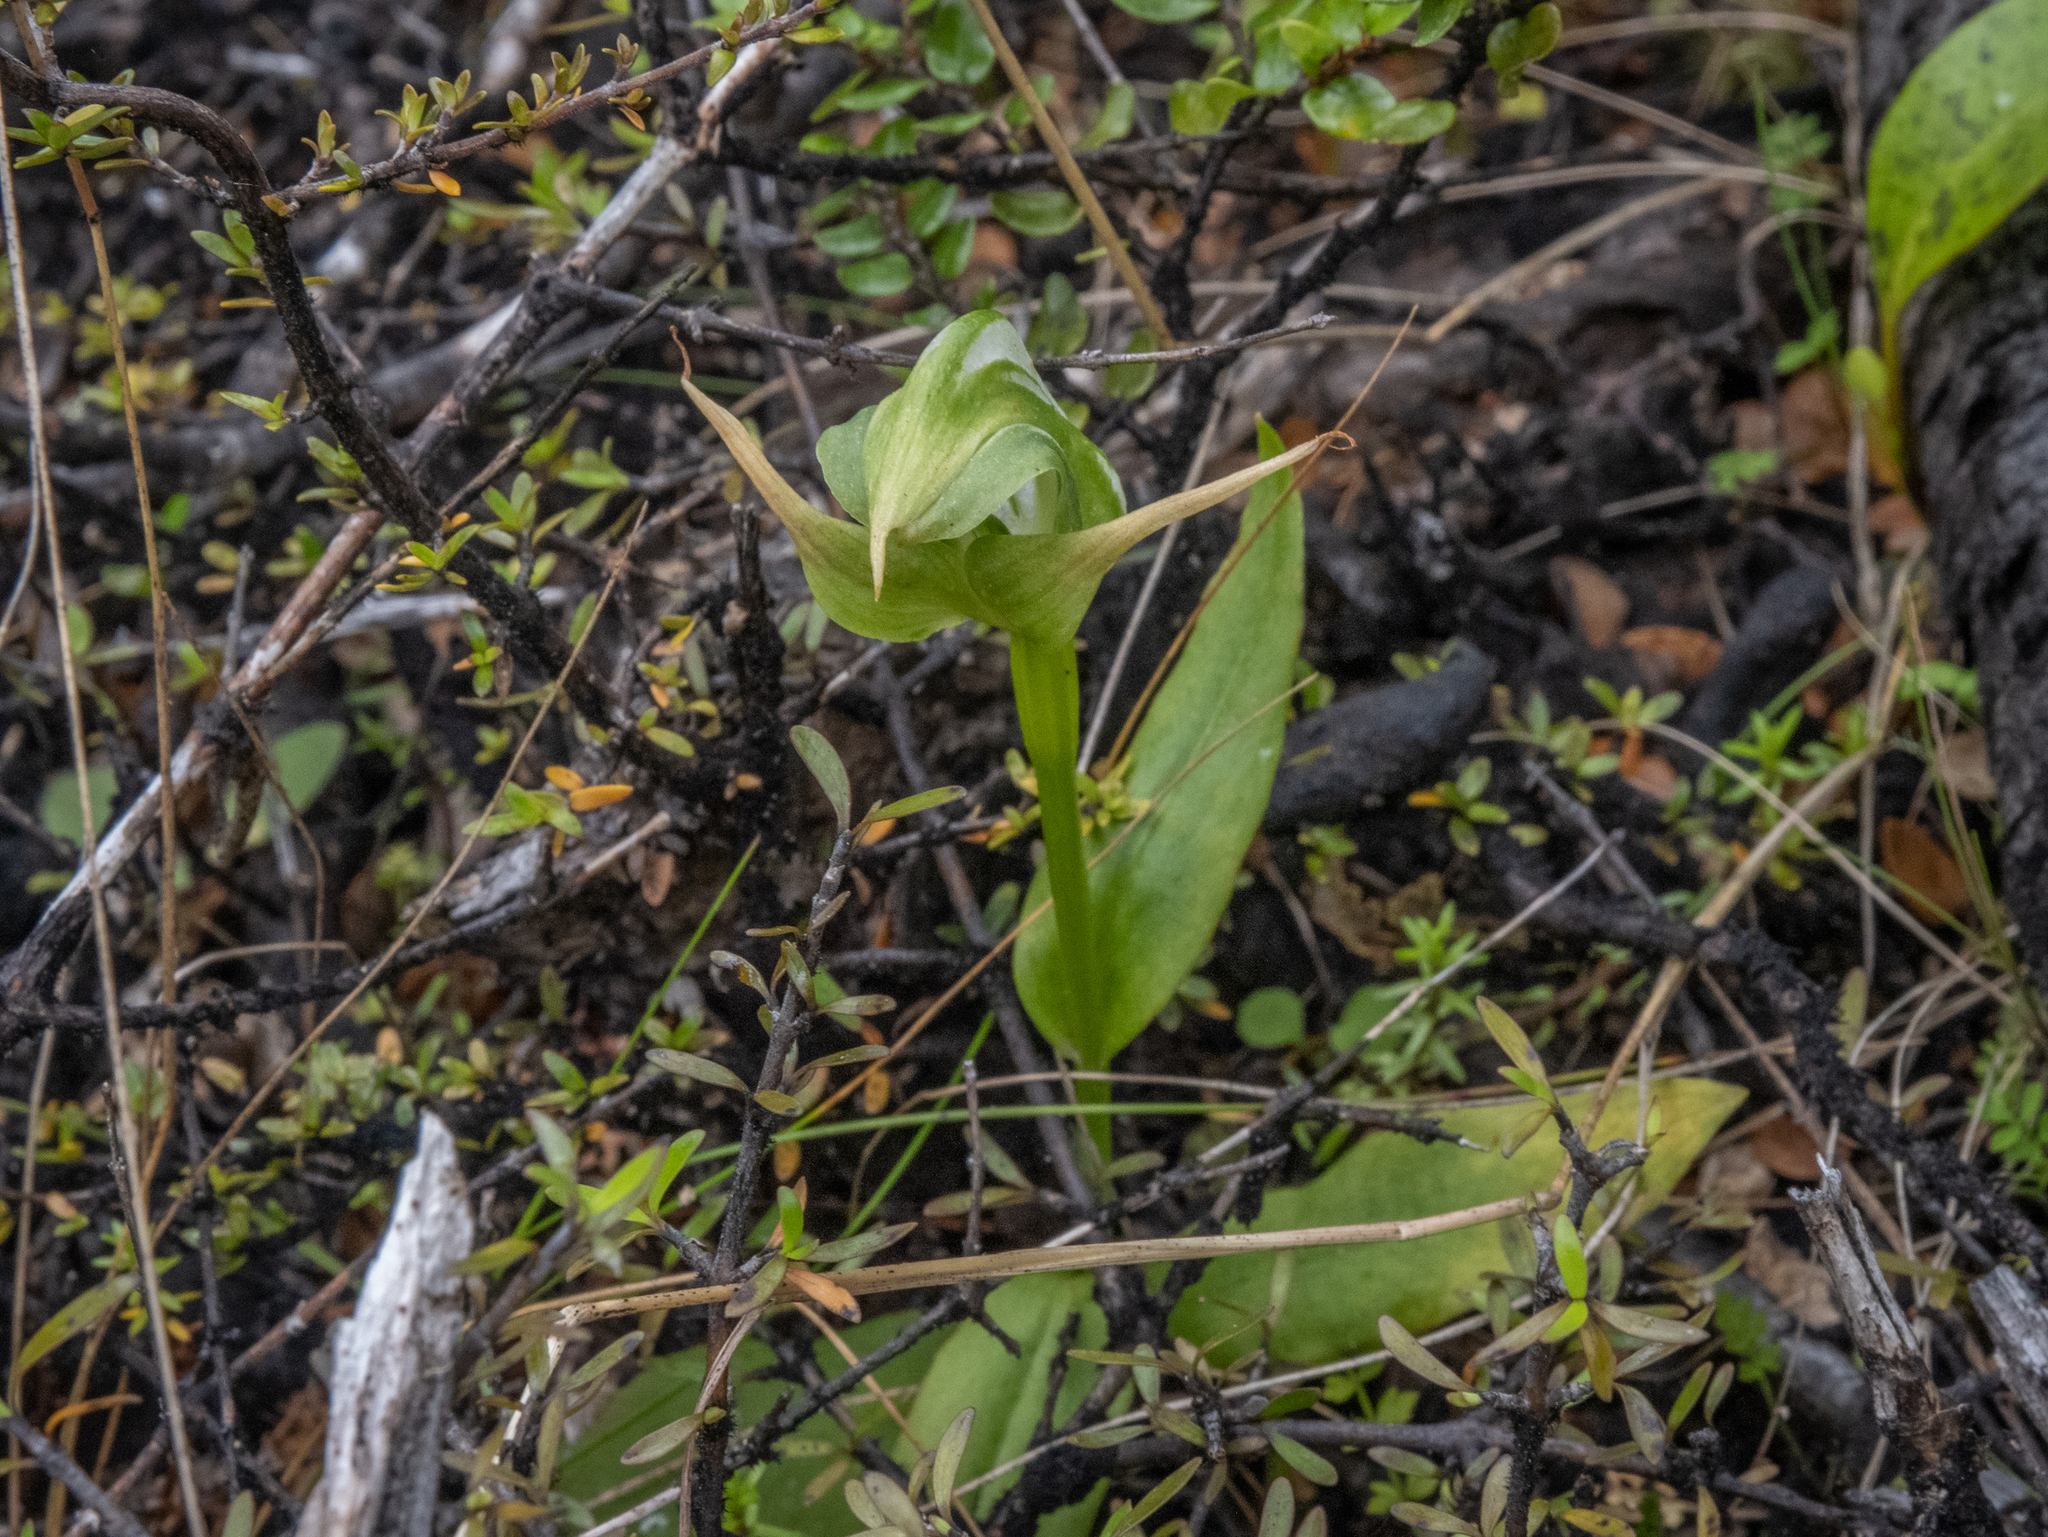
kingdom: Plantae
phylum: Tracheophyta
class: Liliopsida
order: Asparagales
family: Orchidaceae
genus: Pterostylis
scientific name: Pterostylis australis
